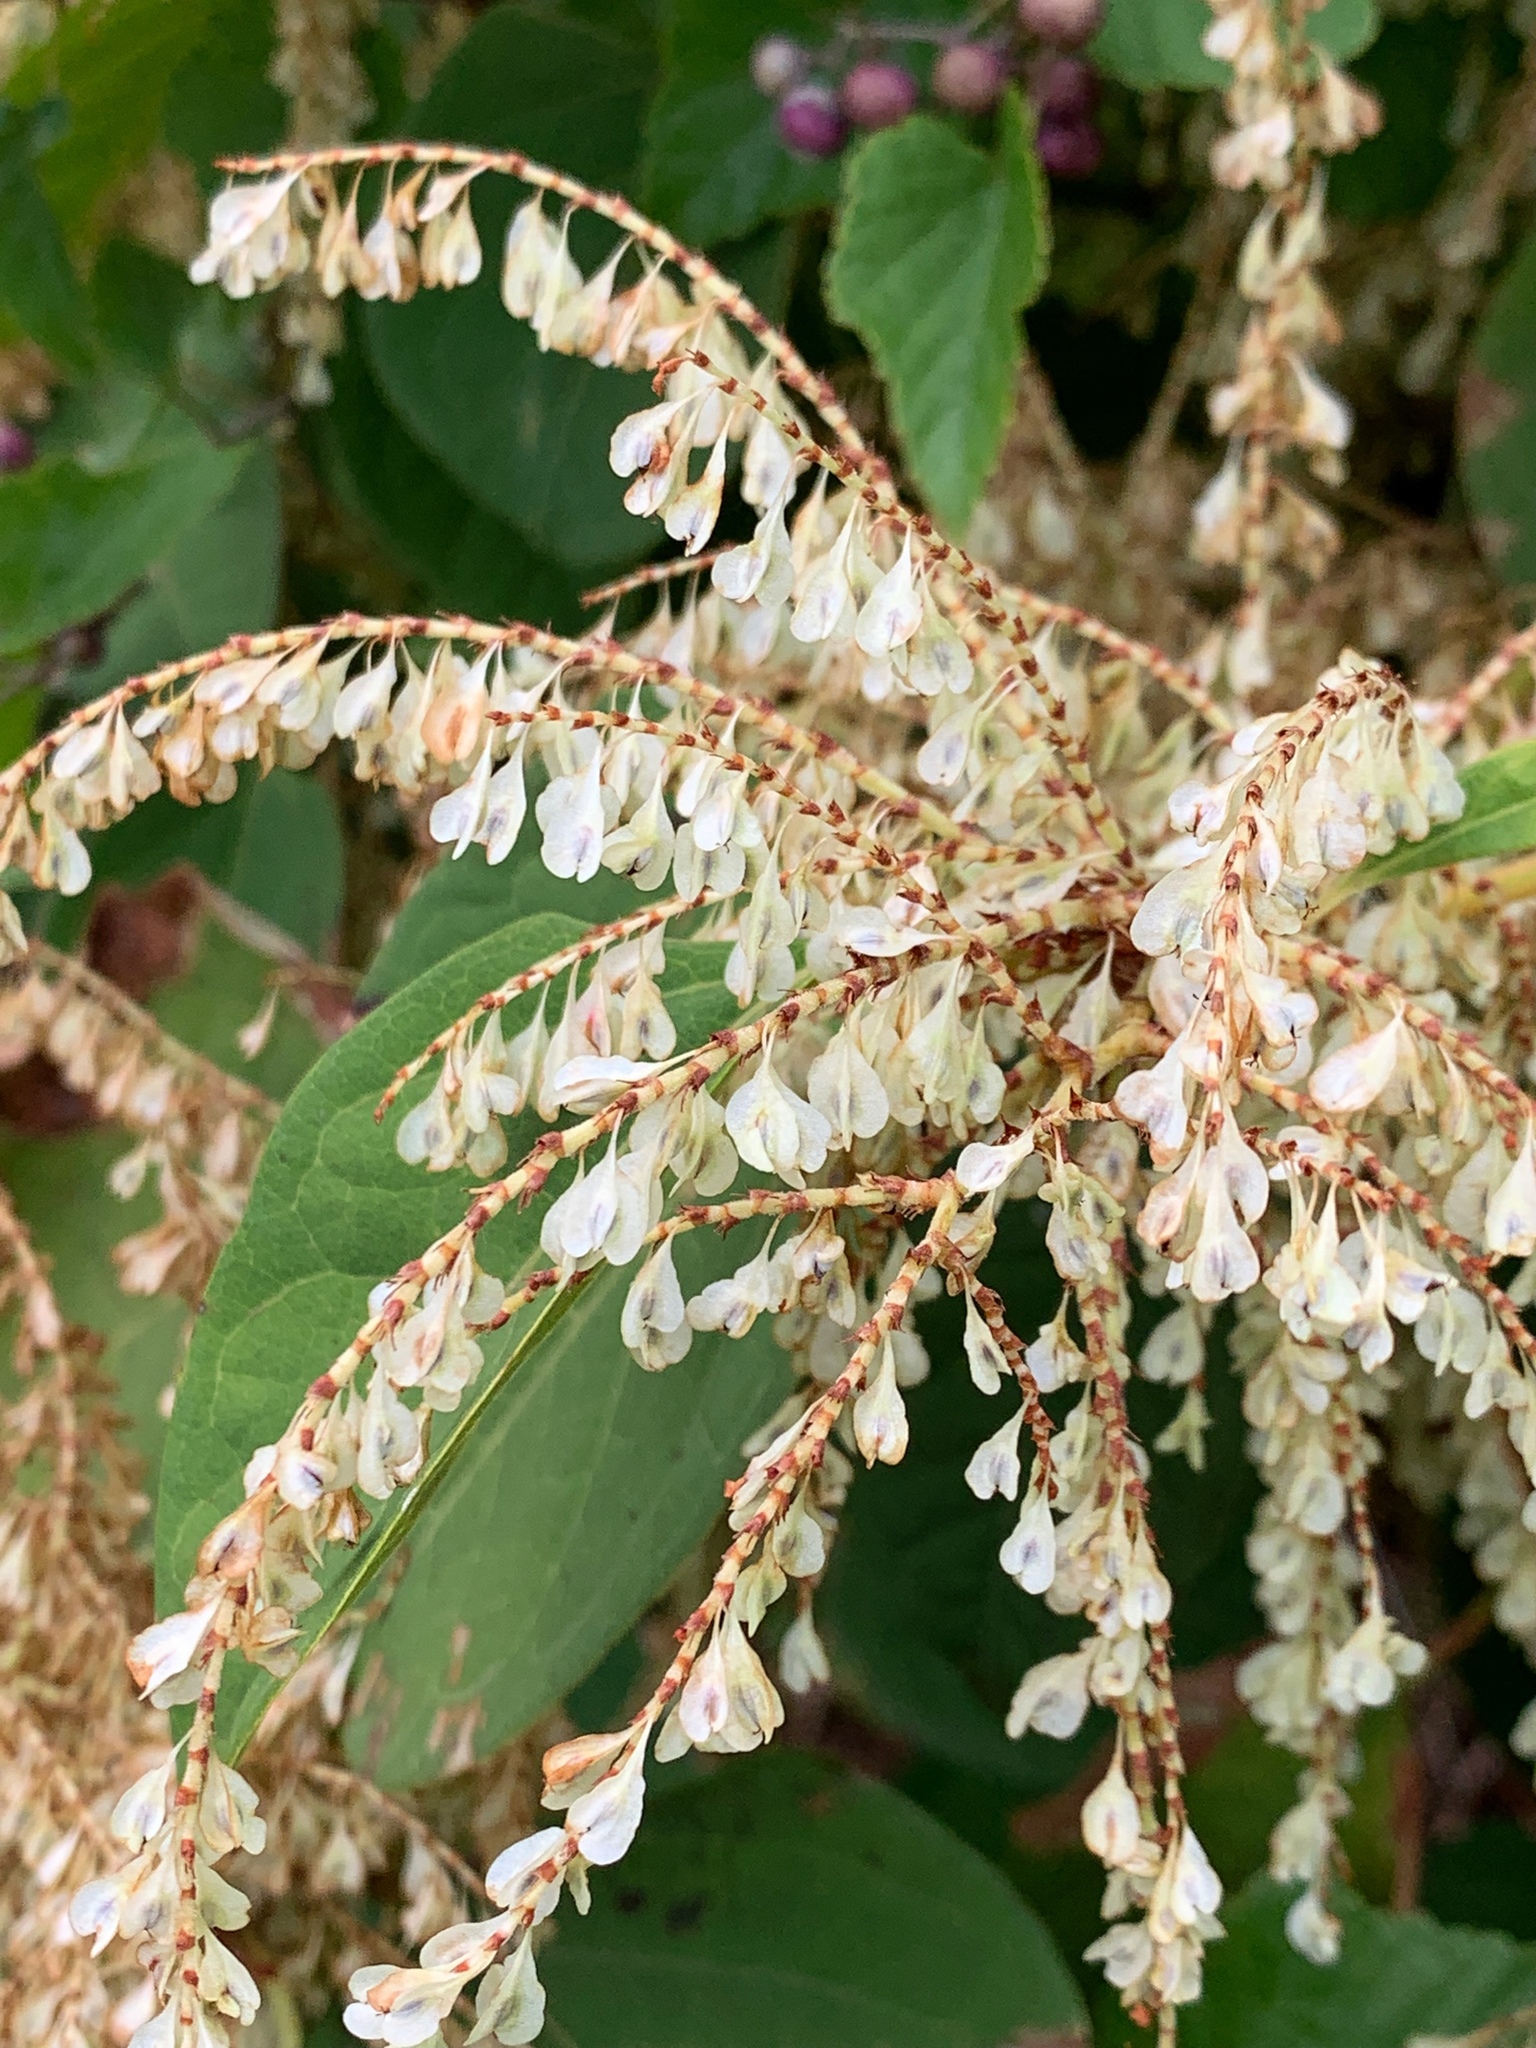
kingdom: Plantae
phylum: Tracheophyta
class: Magnoliopsida
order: Caryophyllales
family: Polygonaceae
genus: Reynoutria
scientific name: Reynoutria japonica
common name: Japanese knotweed
